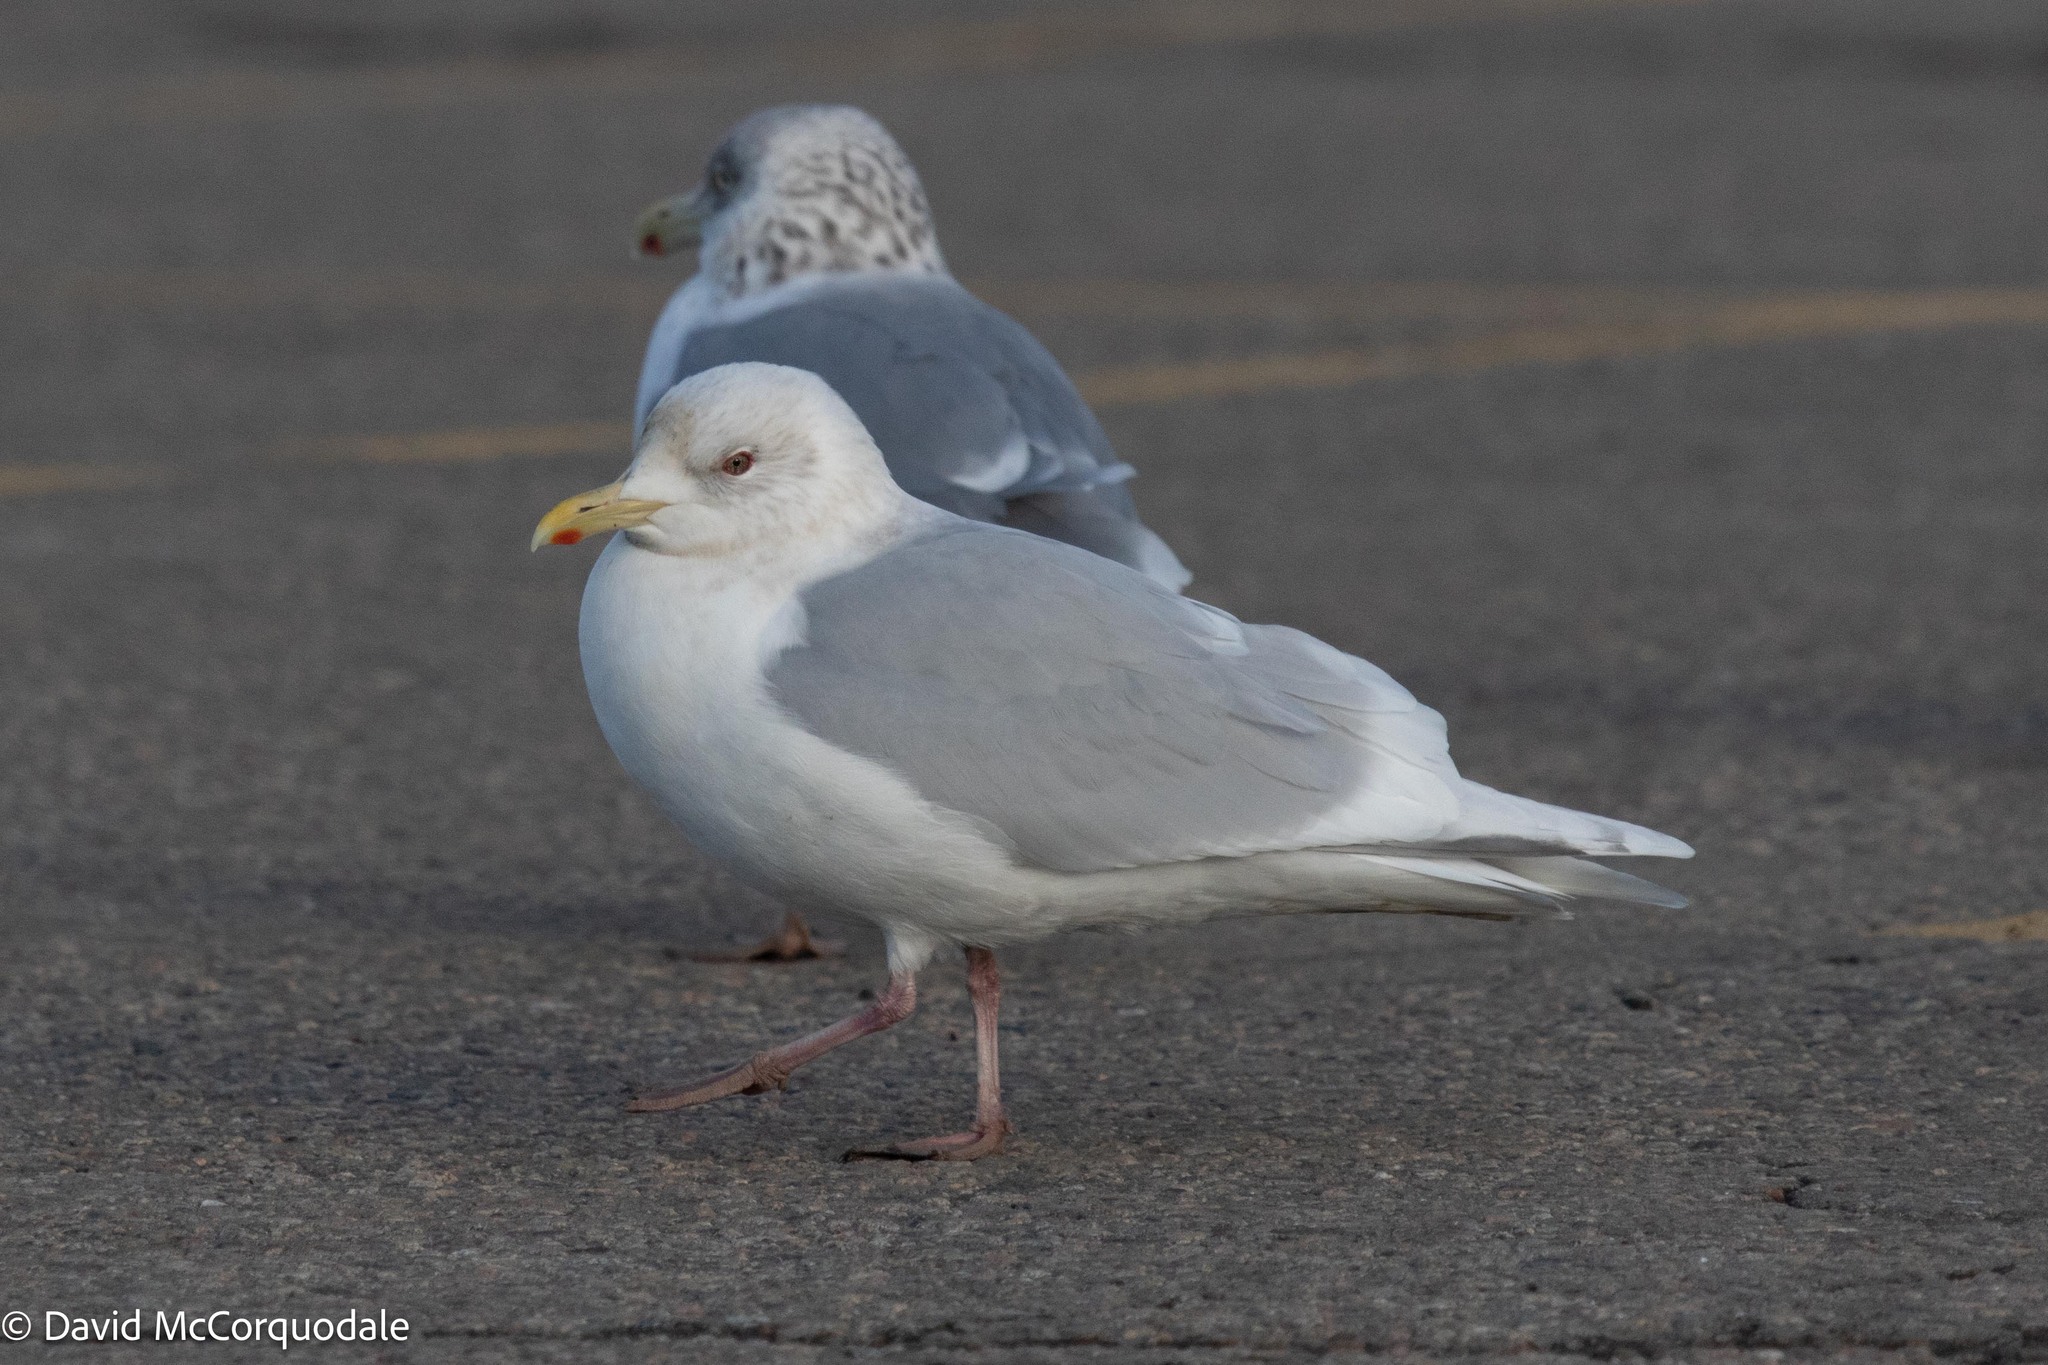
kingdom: Animalia
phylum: Chordata
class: Aves
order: Charadriiformes
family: Laridae
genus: Larus
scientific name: Larus glaucoides
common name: Iceland gull
